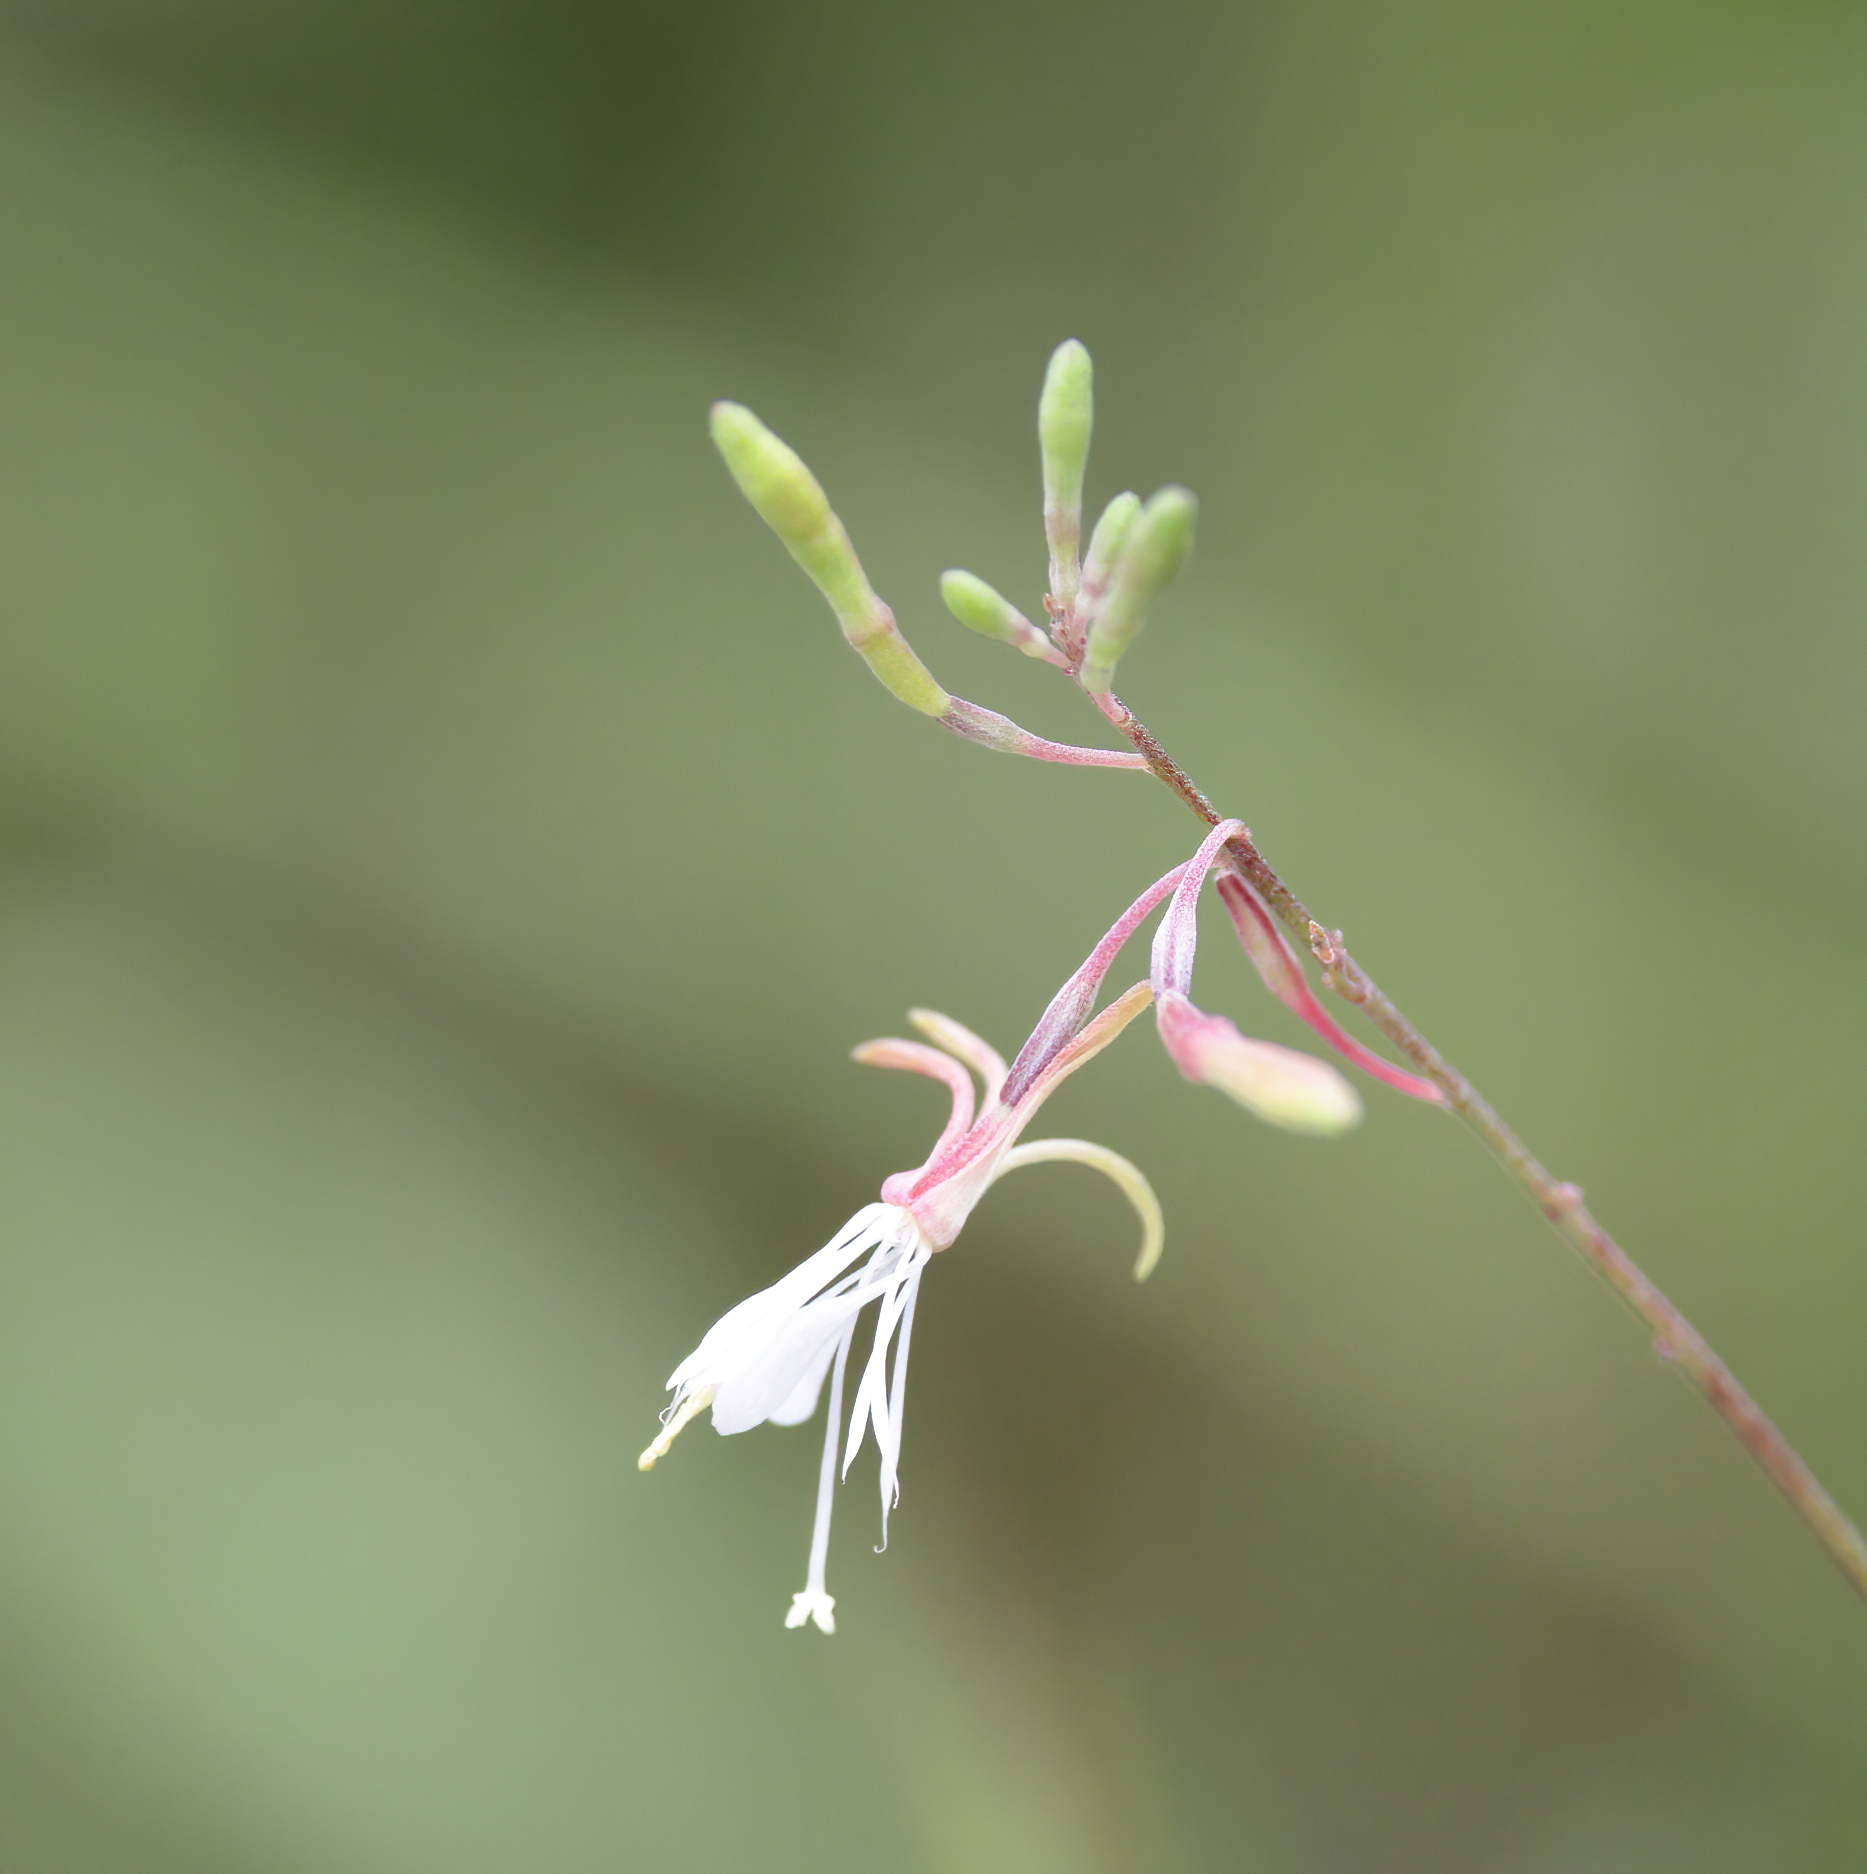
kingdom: Plantae
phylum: Tracheophyta
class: Magnoliopsida
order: Myrtales
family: Onagraceae
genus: Oenothera
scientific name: Oenothera filipes
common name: Slenderstalk beeblossom
